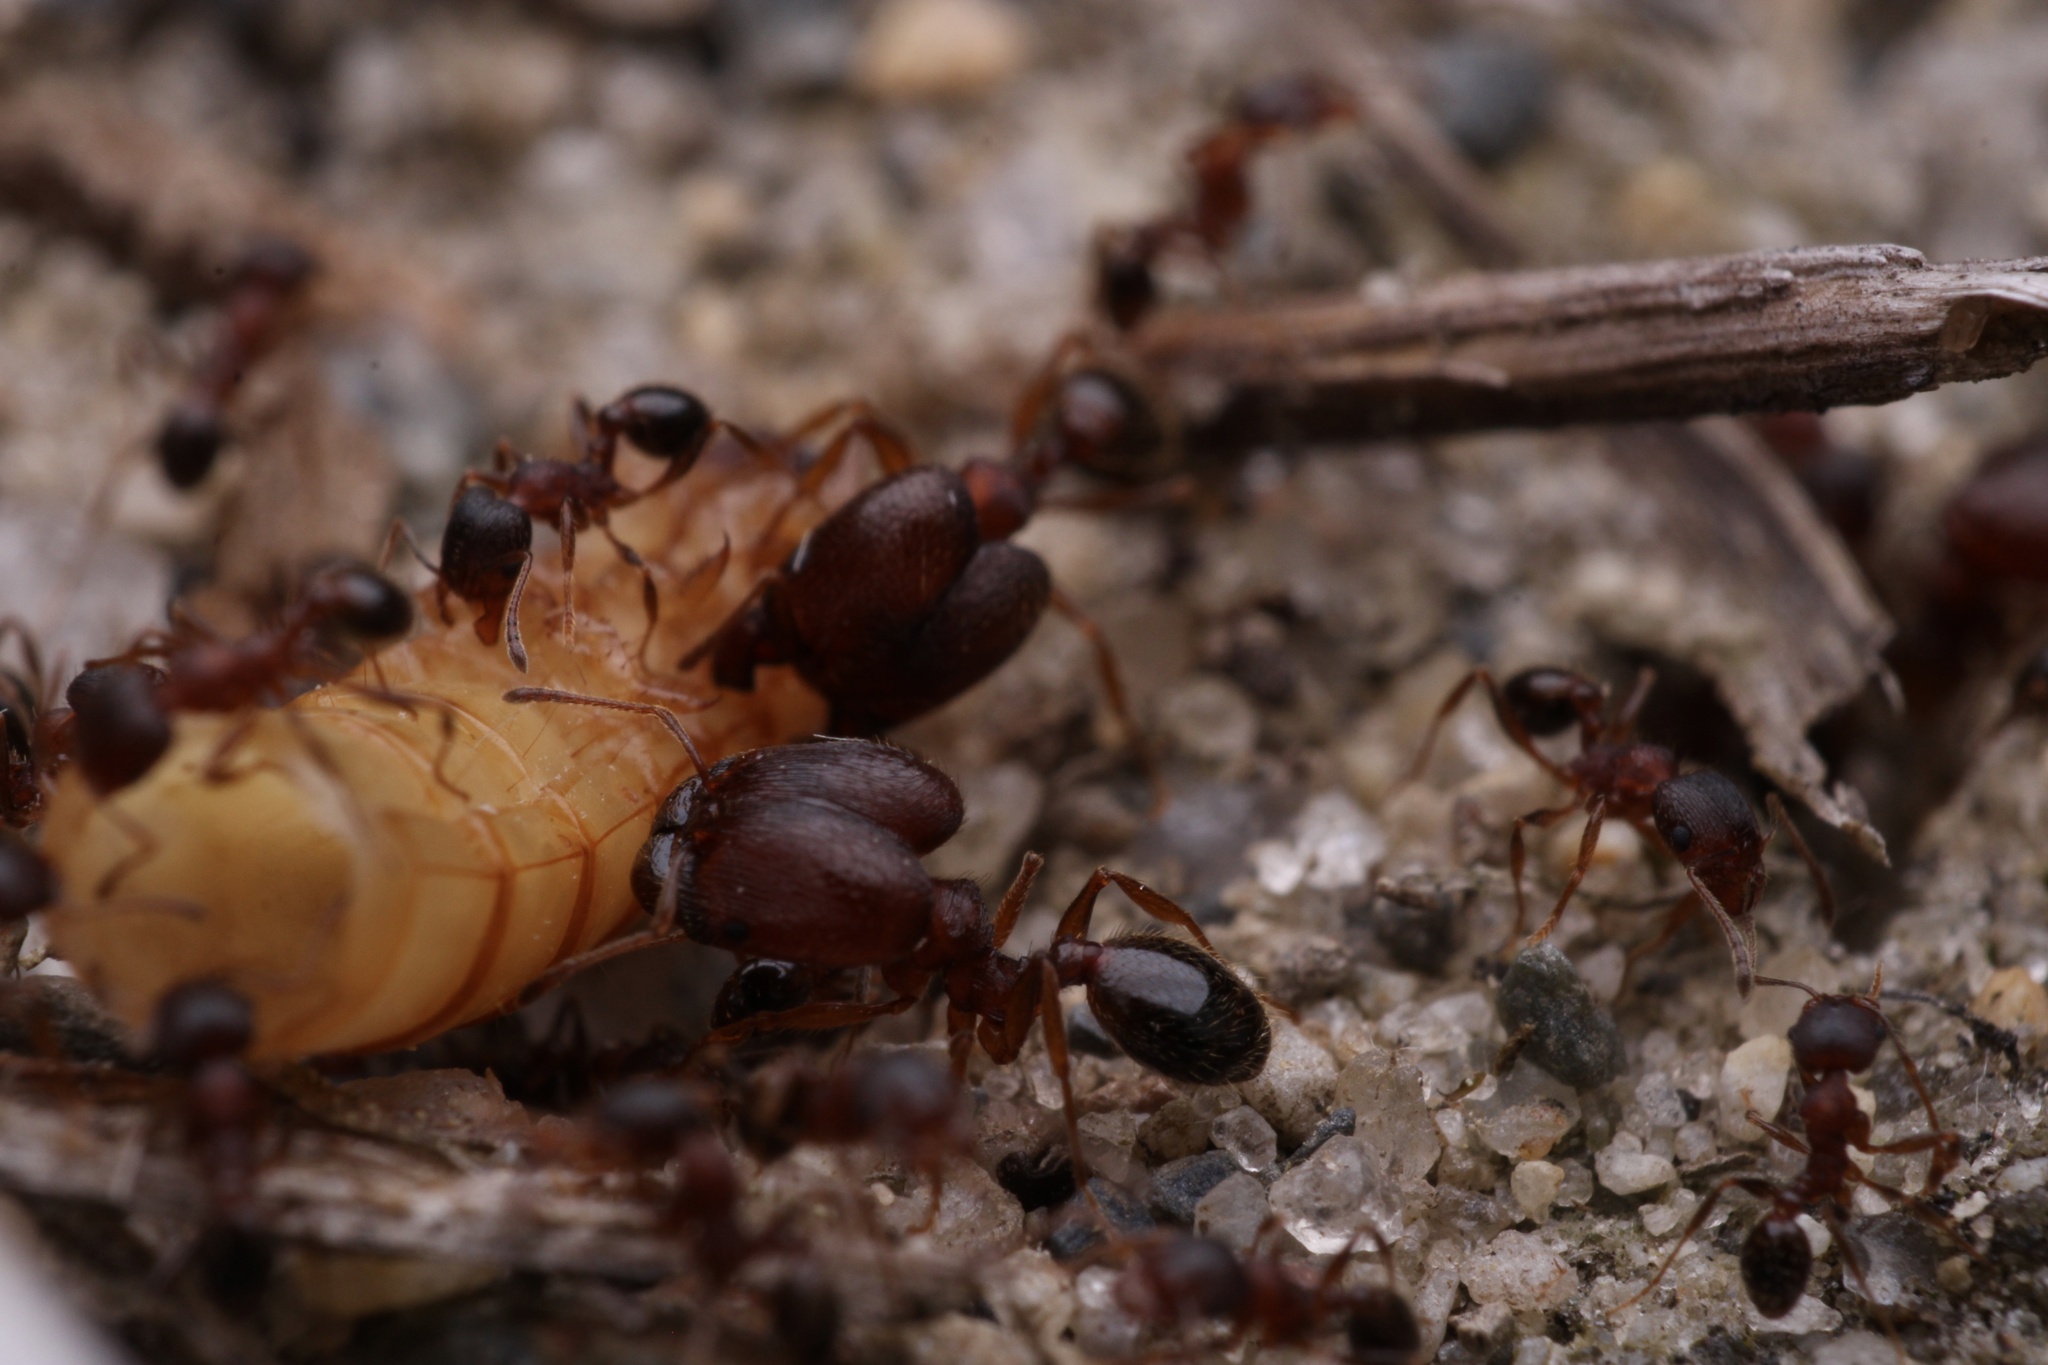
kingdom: Animalia
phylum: Arthropoda
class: Insecta
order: Hymenoptera
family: Formicidae
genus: Pheidole
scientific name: Pheidole pilifera
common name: Hairy big-headed ant
